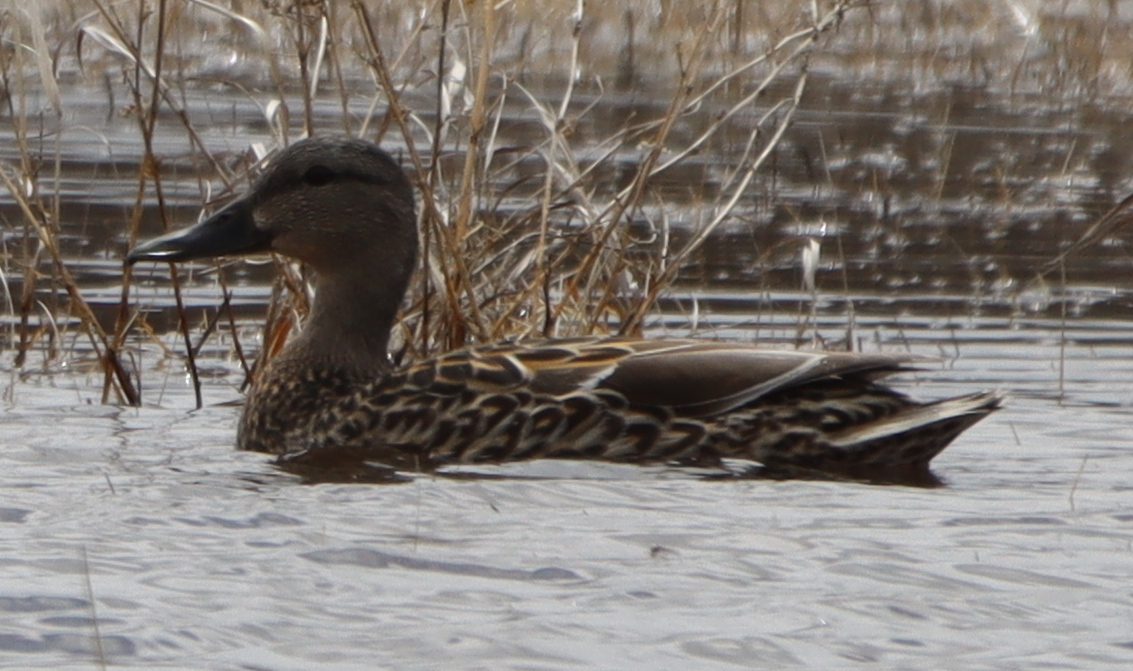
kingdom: Animalia
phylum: Chordata
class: Aves
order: Anseriformes
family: Anatidae
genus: Anas
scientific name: Anas platyrhynchos
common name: Mallard
